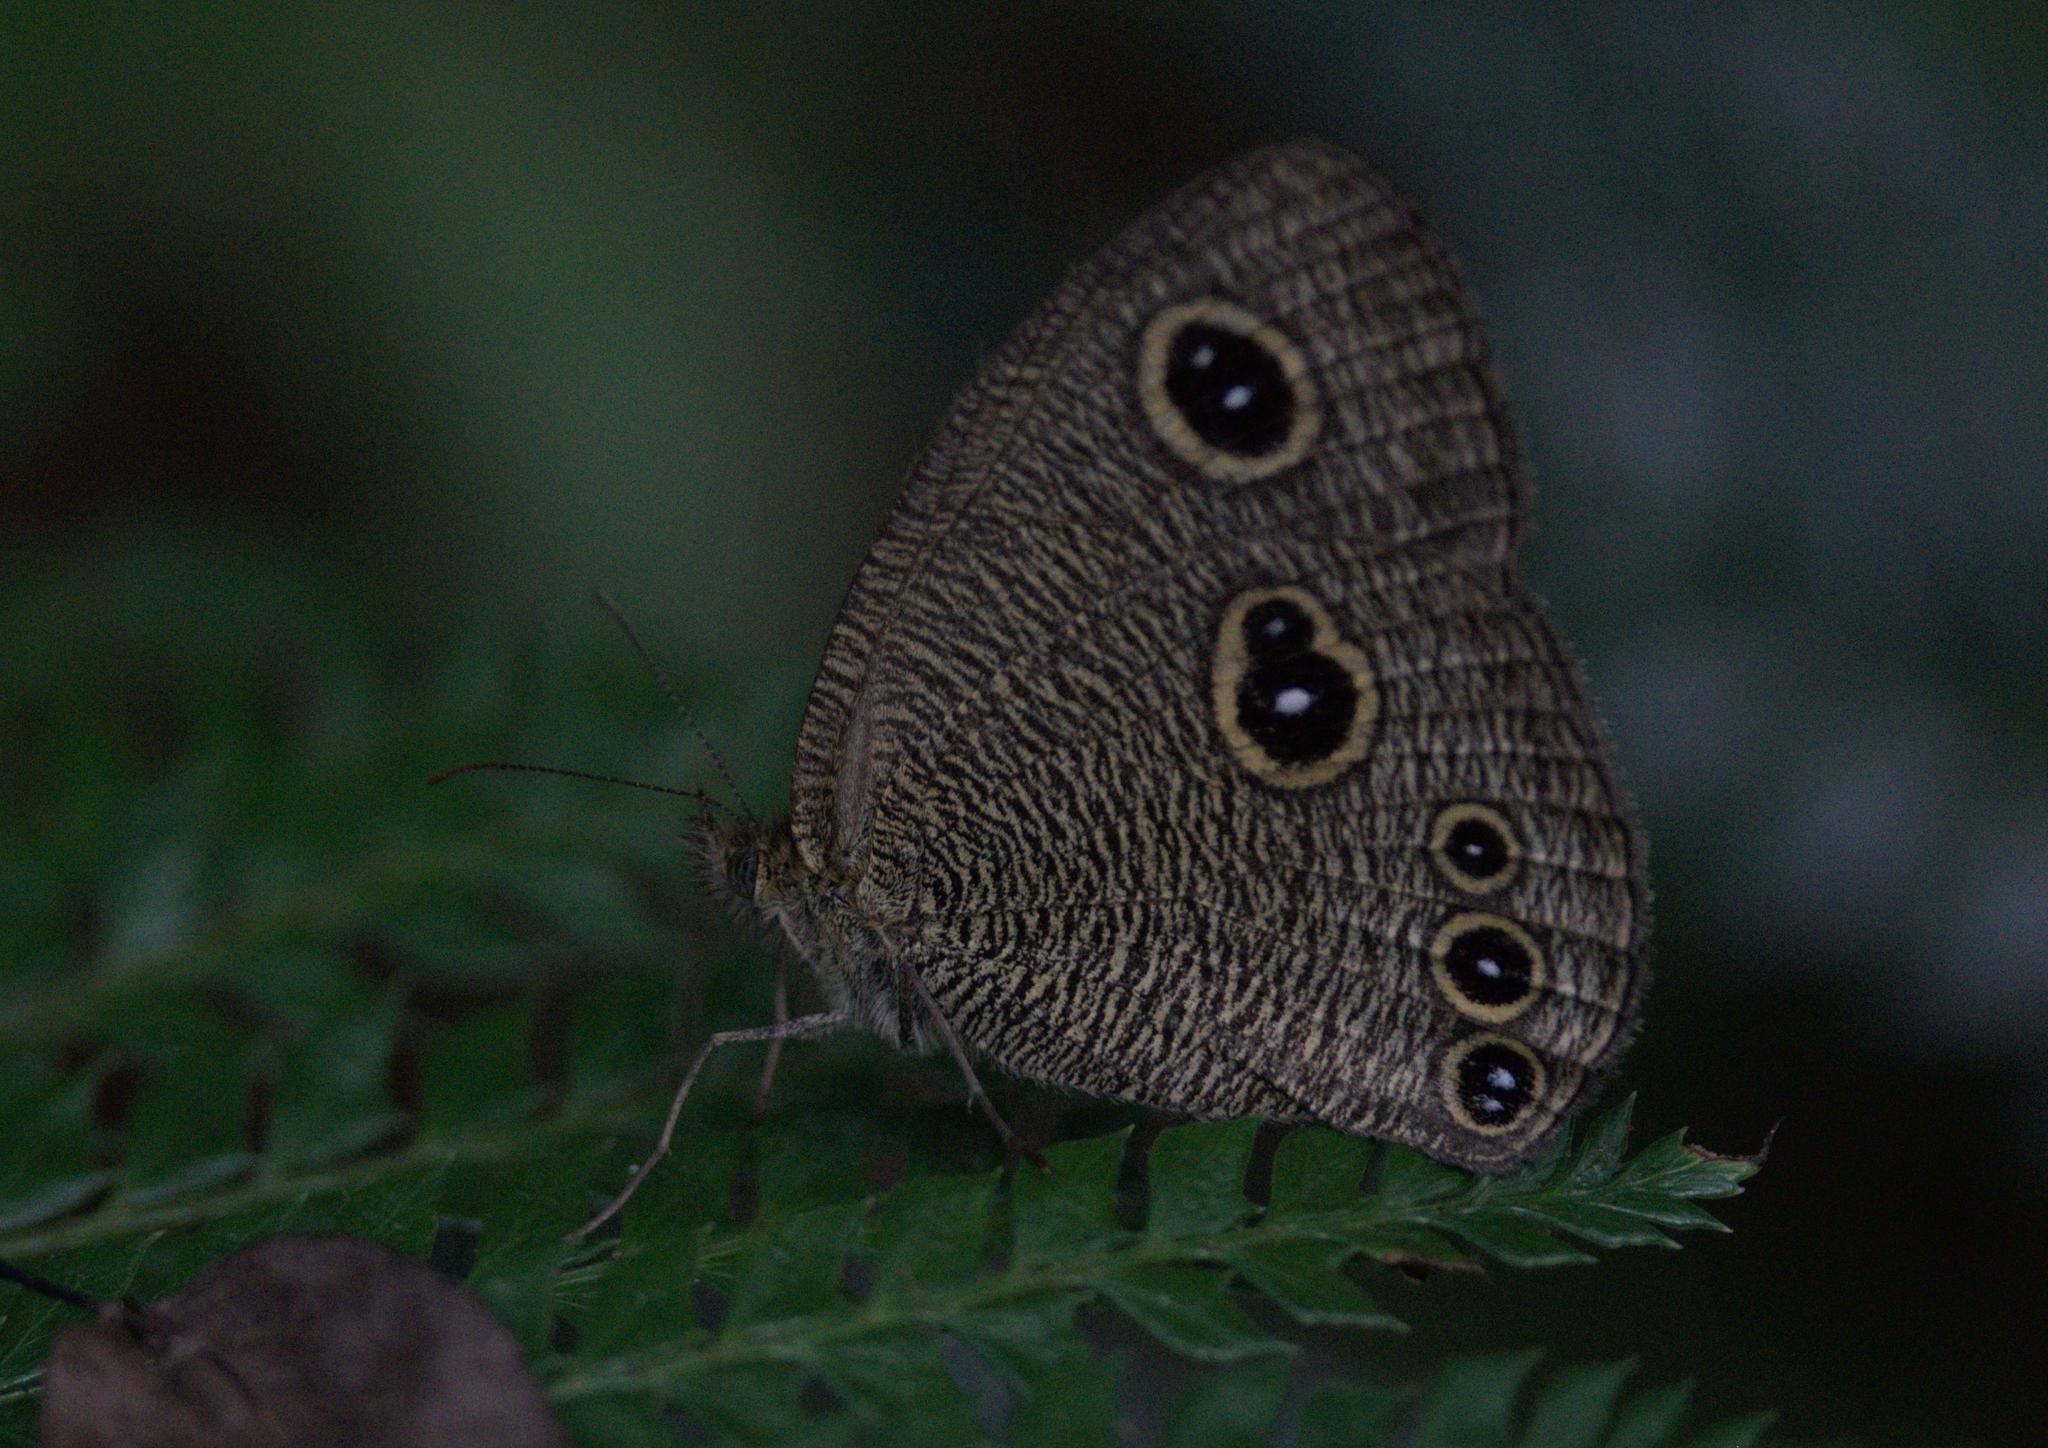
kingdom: Animalia
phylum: Arthropoda
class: Insecta
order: Lepidoptera
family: Nymphalidae
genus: Ypthima
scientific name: Ypthima nikaea
